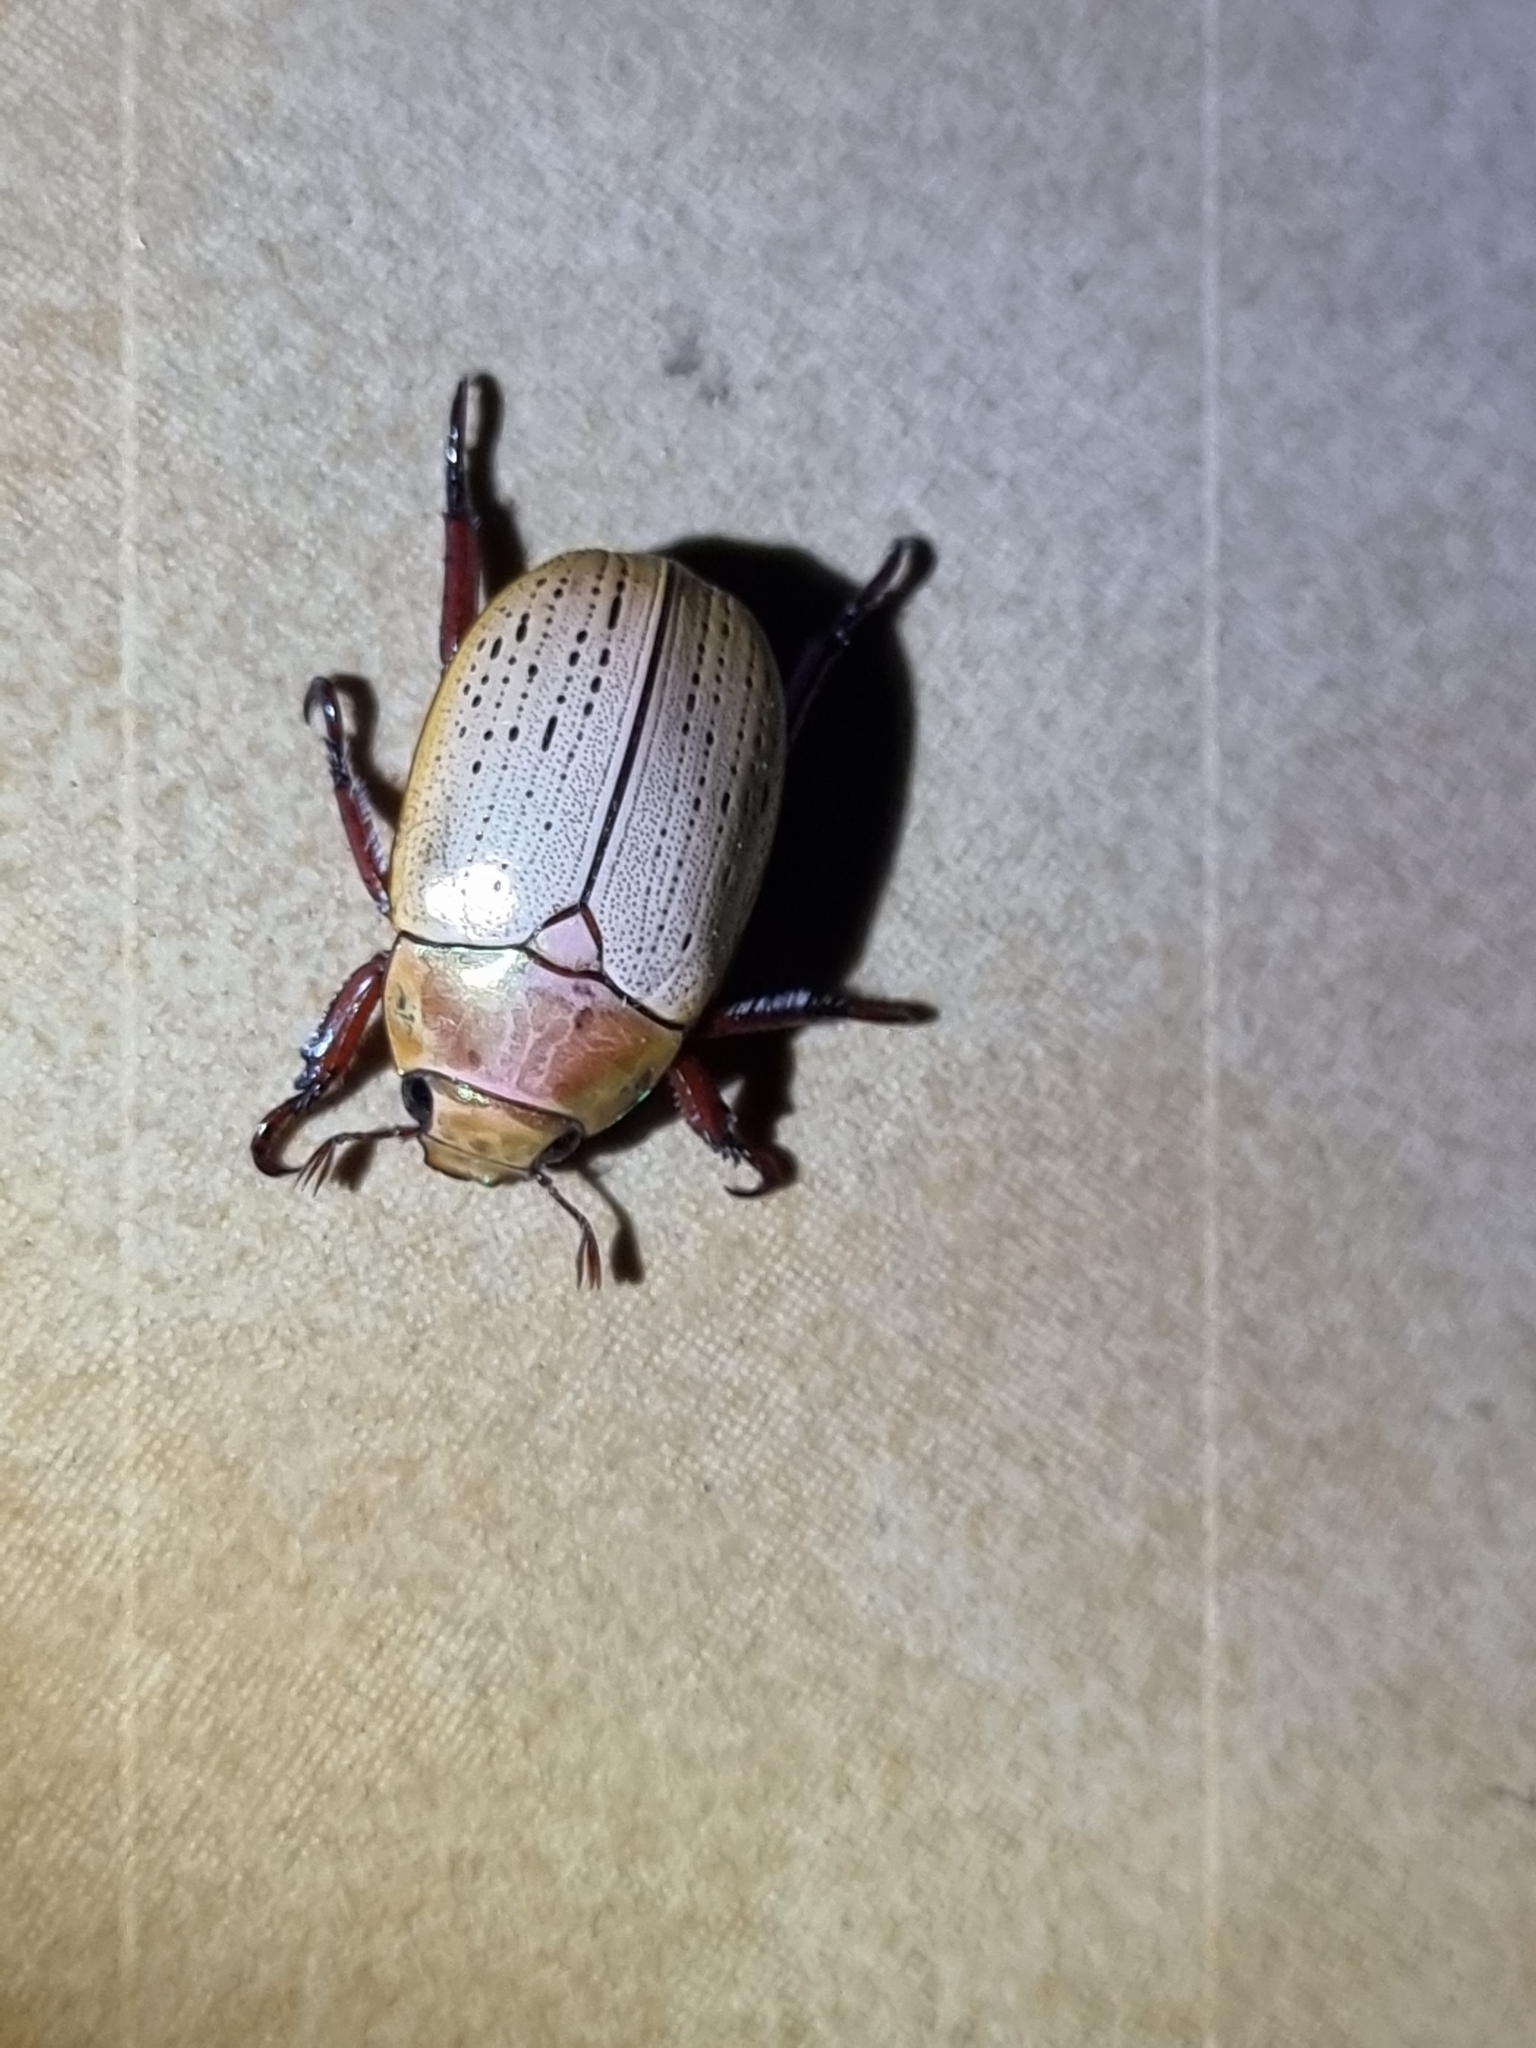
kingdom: Animalia
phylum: Arthropoda
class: Insecta
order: Coleoptera
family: Scarabaeidae
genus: Anoplognathus
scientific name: Anoplognathus porosus
